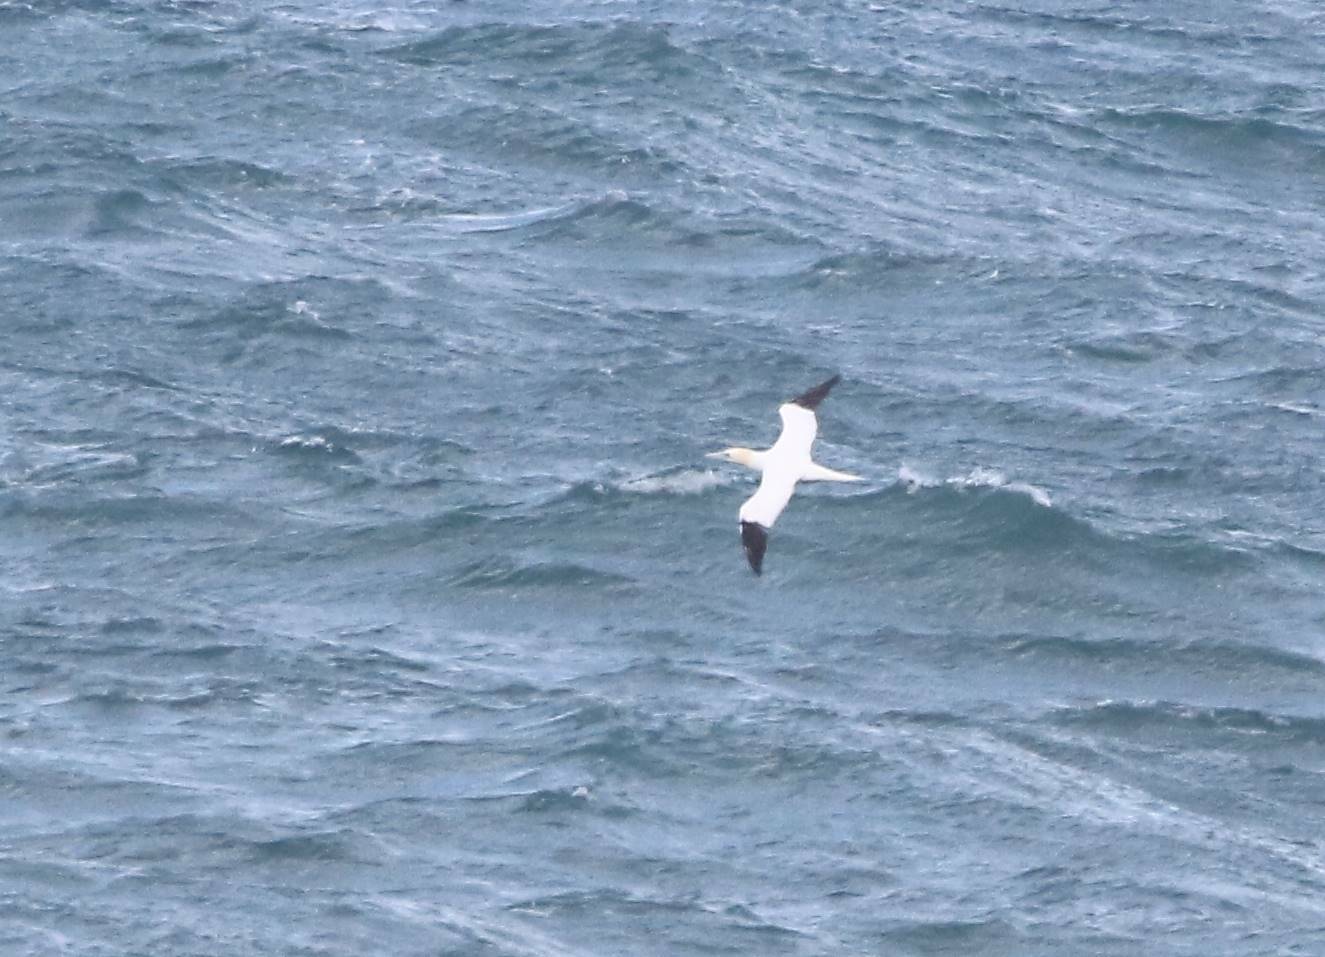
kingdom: Animalia
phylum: Chordata
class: Aves
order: Suliformes
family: Sulidae
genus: Morus
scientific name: Morus bassanus
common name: Northern gannet
